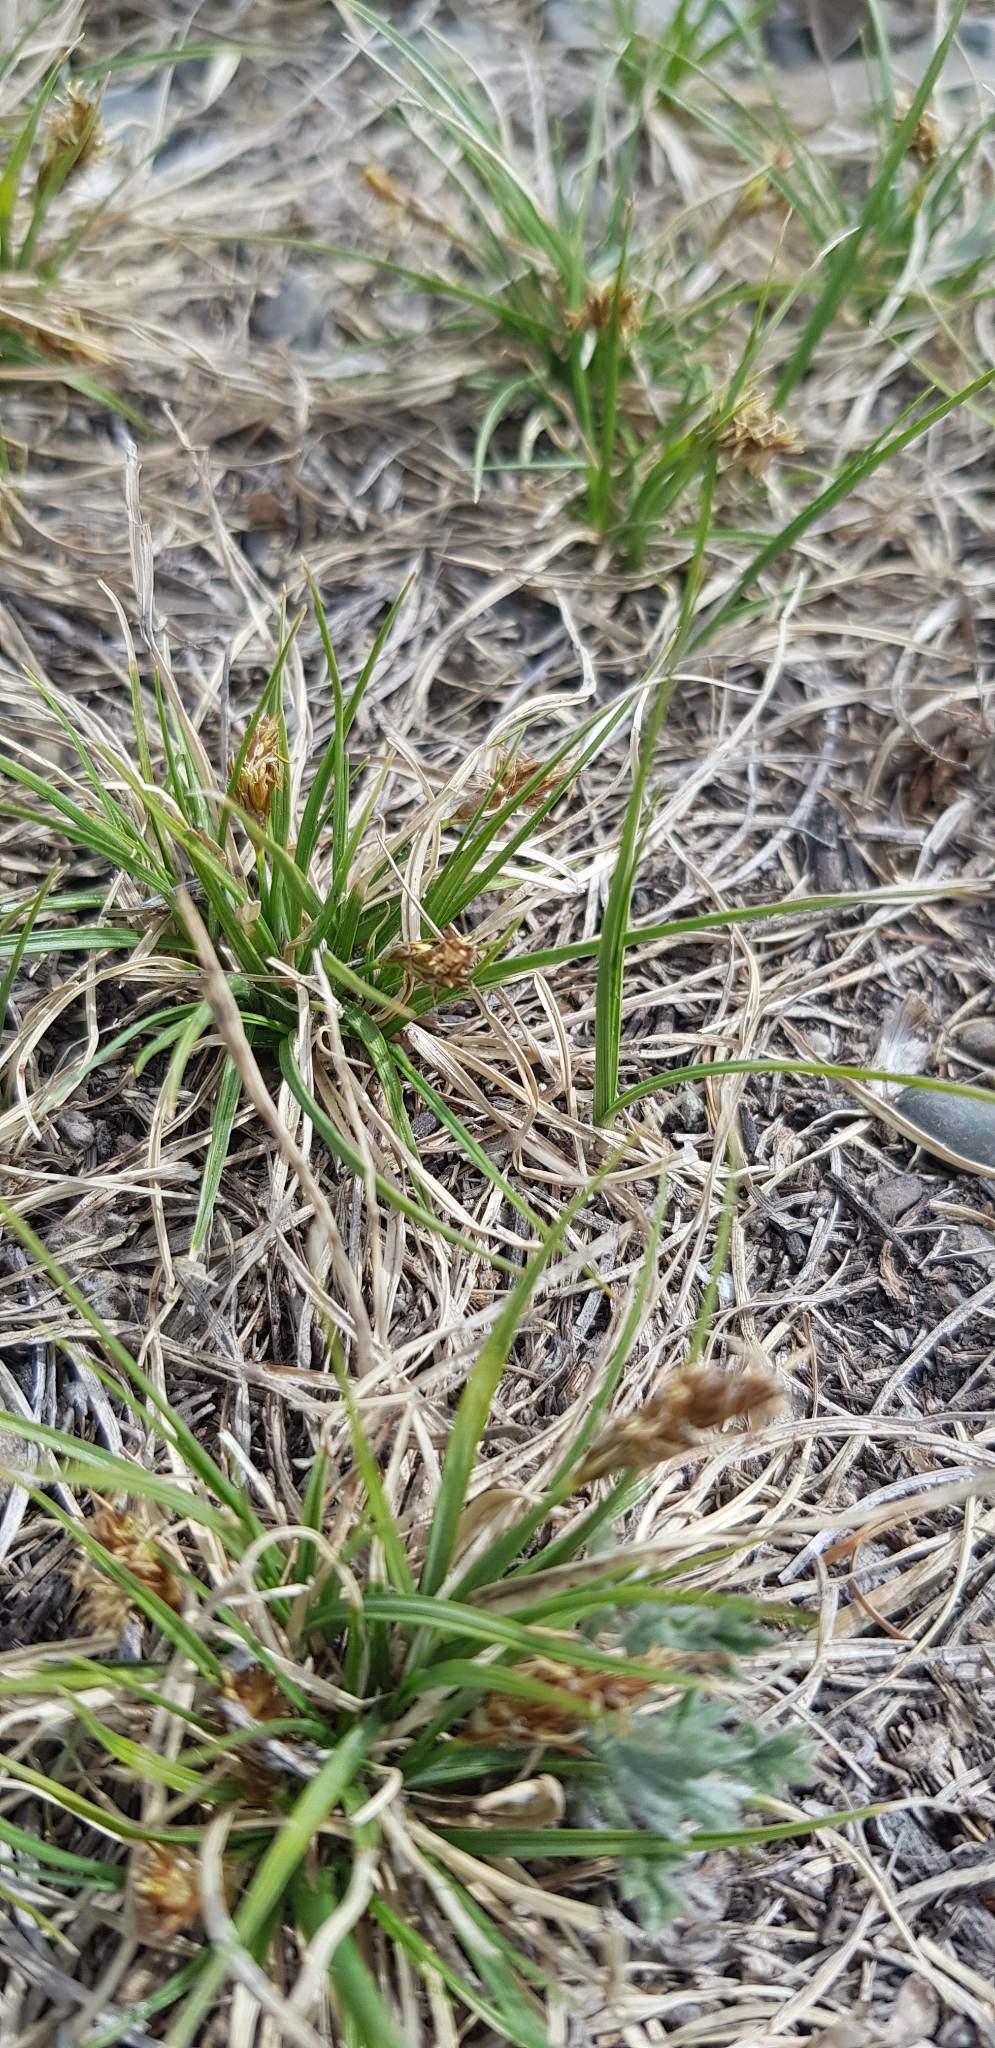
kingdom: Plantae
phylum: Tracheophyta
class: Liliopsida
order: Poales
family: Cyperaceae
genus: Carex
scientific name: Carex duriuscula
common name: Involute-leaved sedge
